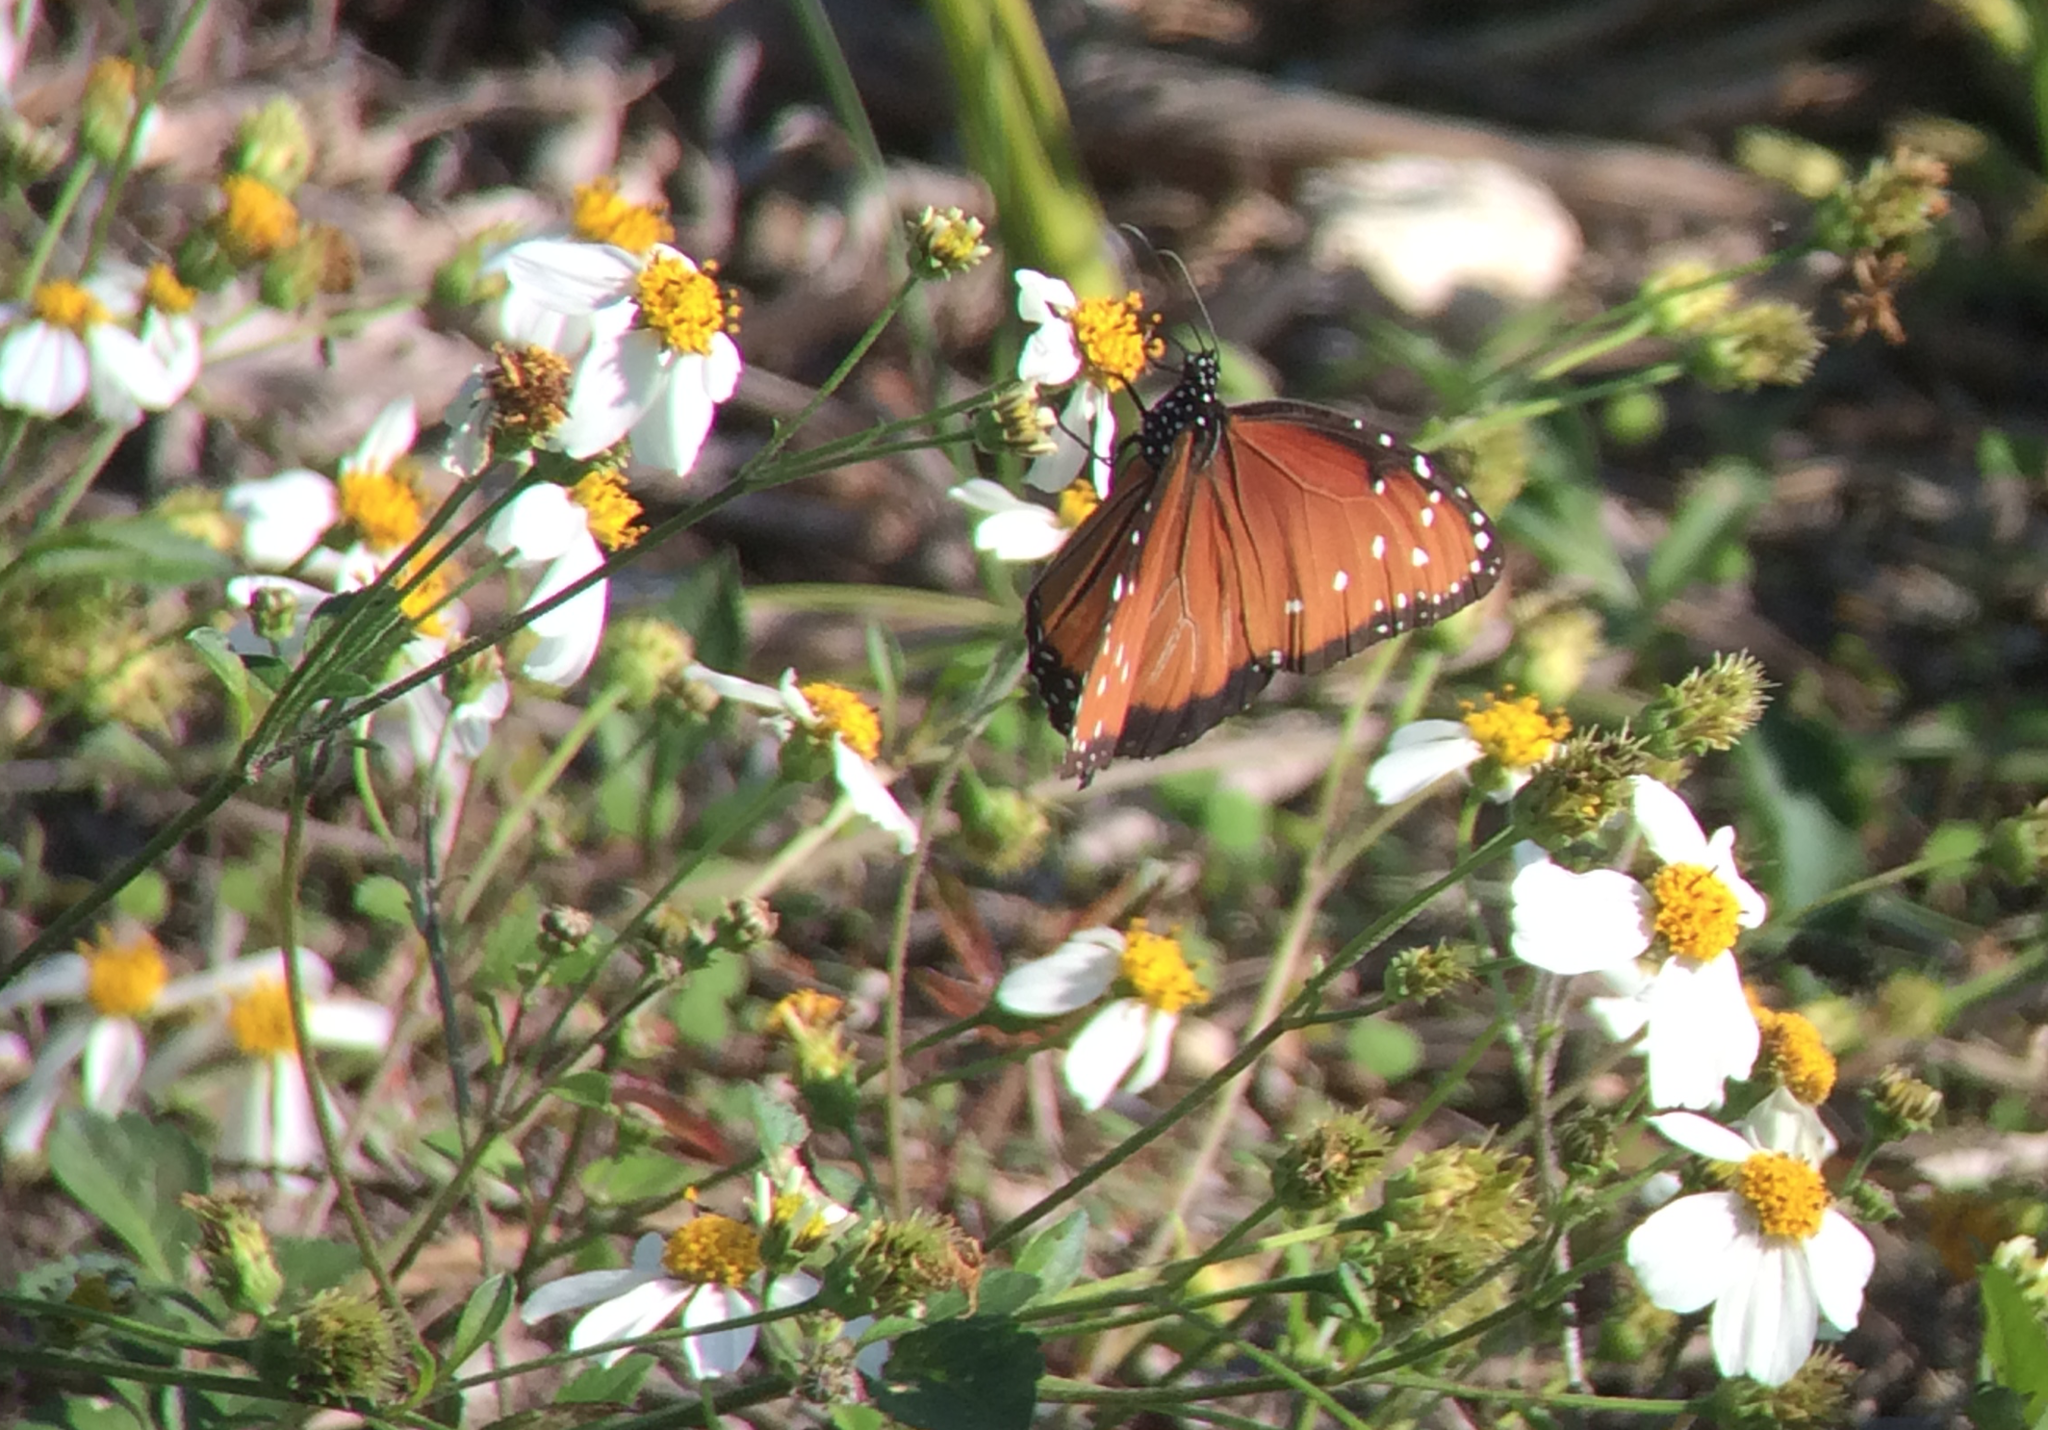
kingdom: Animalia
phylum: Arthropoda
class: Insecta
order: Lepidoptera
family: Nymphalidae
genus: Danaus
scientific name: Danaus gilippus
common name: Queen
